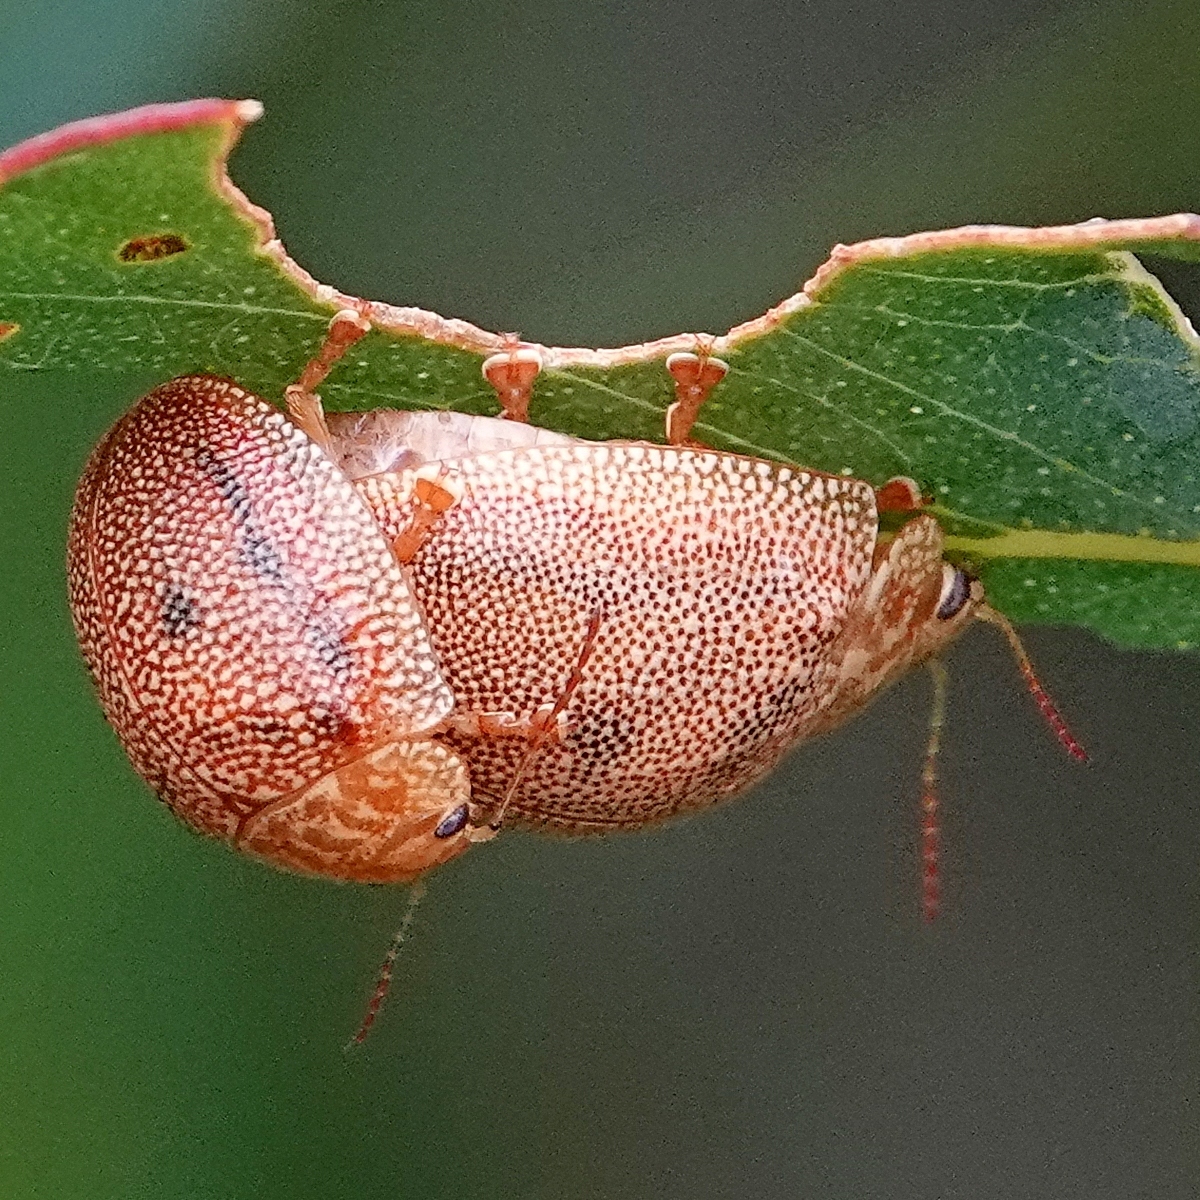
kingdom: Animalia
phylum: Arthropoda
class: Insecta
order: Coleoptera
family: Chrysomelidae
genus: Paropsis
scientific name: Paropsis
